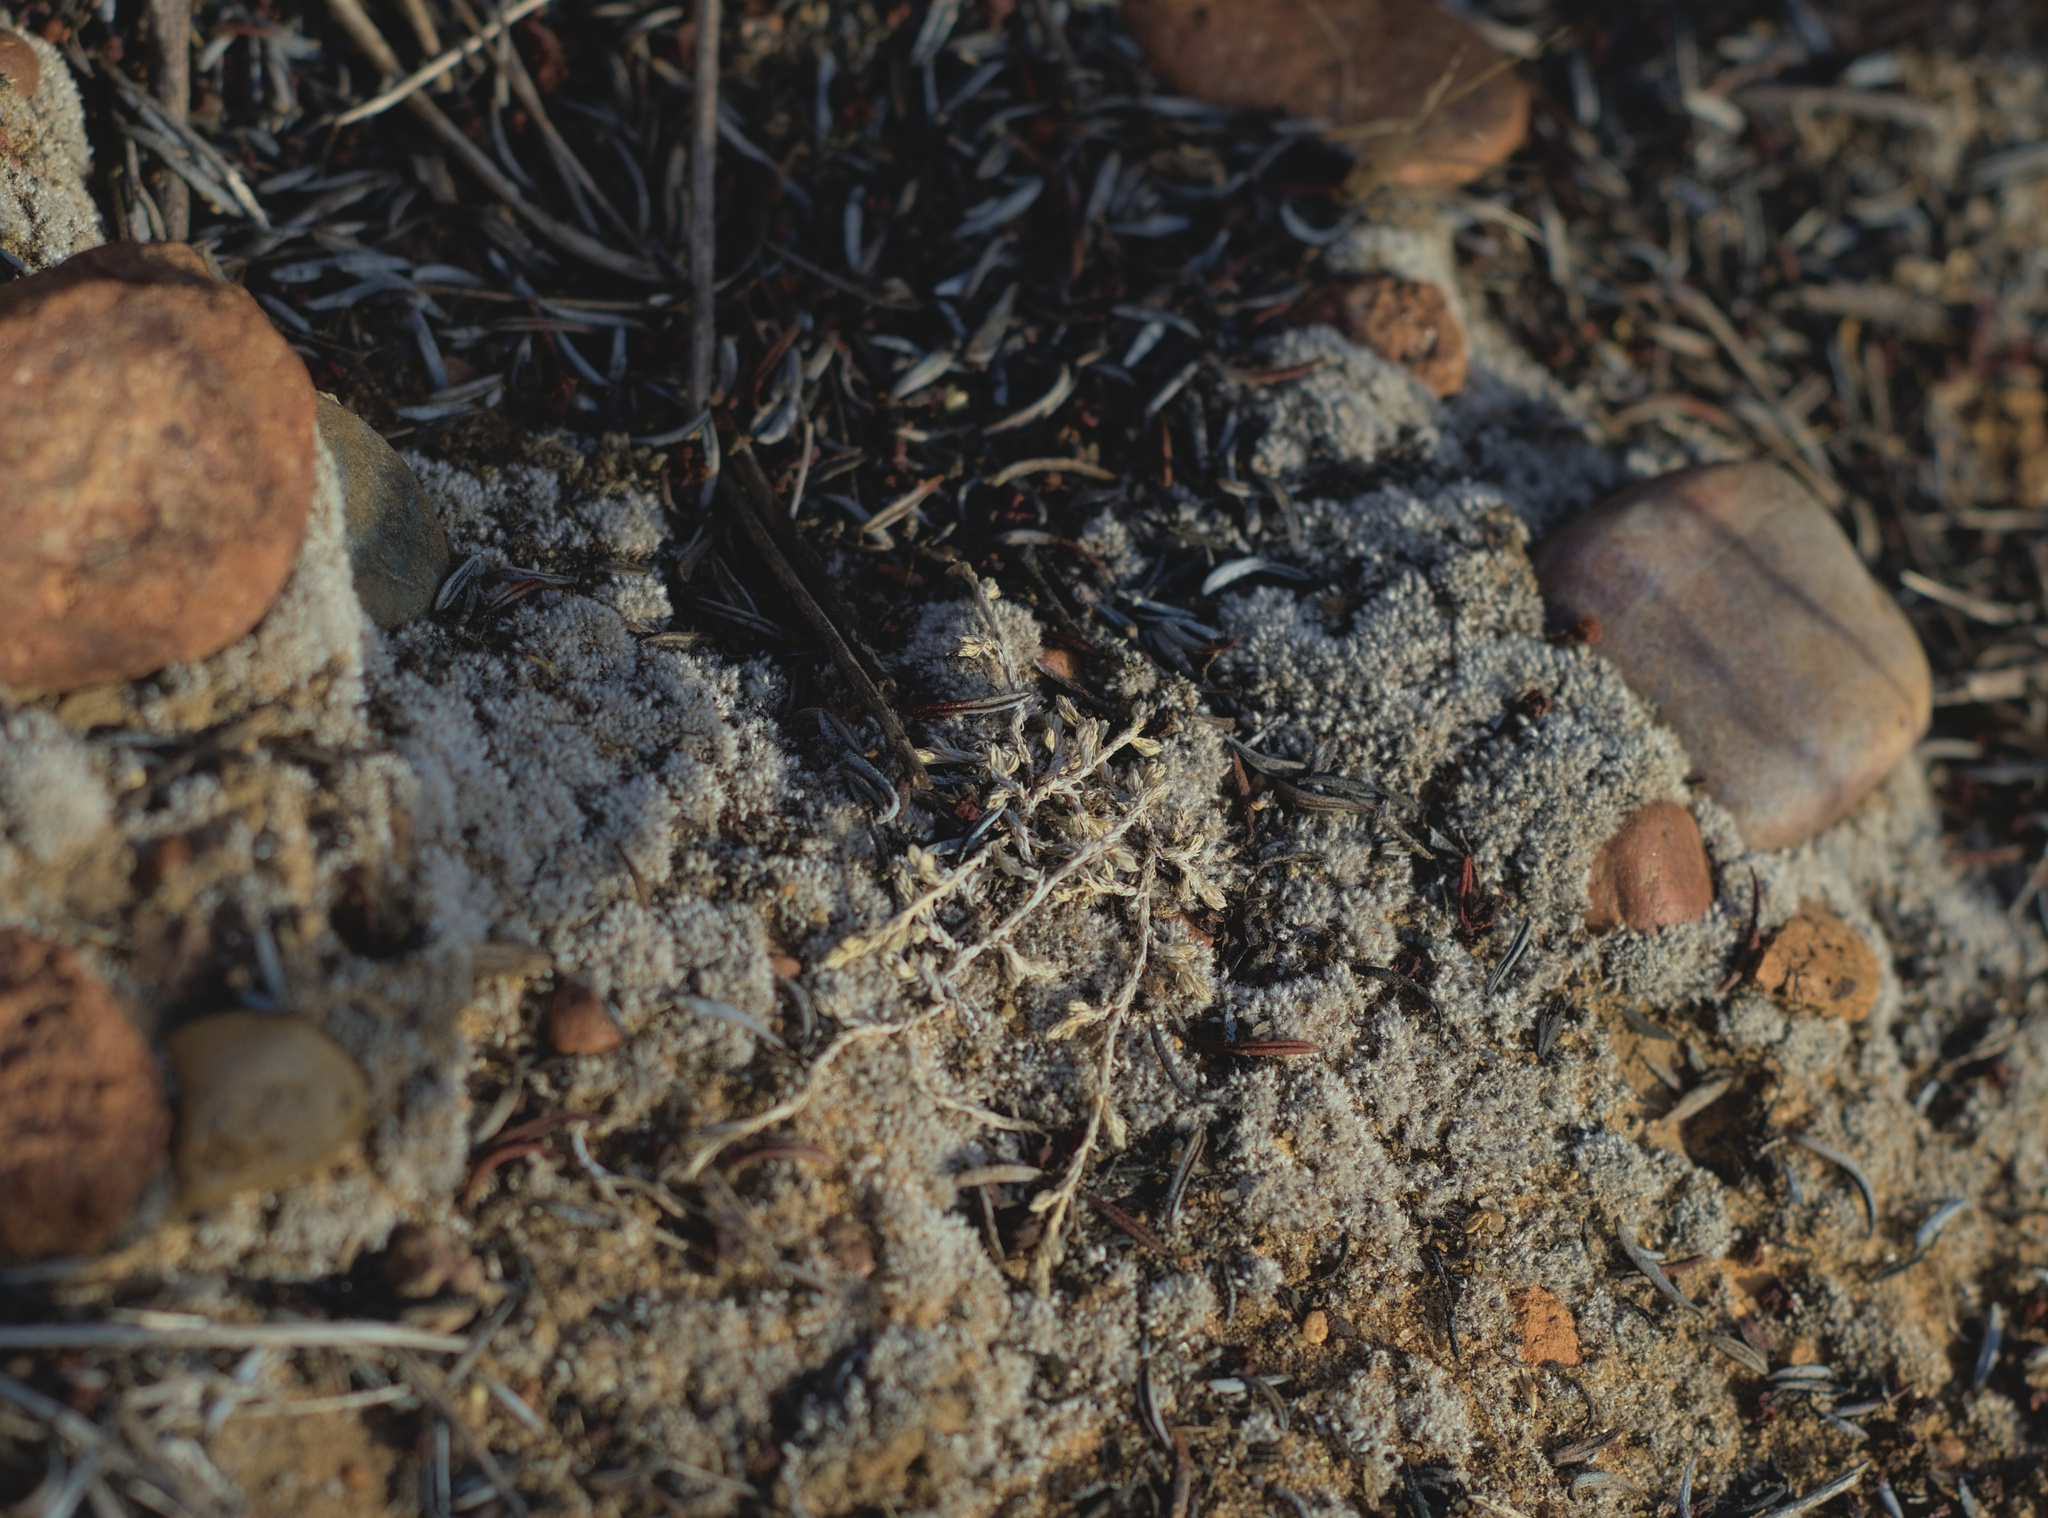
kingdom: Plantae
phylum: Tracheophyta
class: Lycopodiopsida
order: Selaginellales
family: Selaginellaceae
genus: Selaginella
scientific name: Selaginella cinerascens
